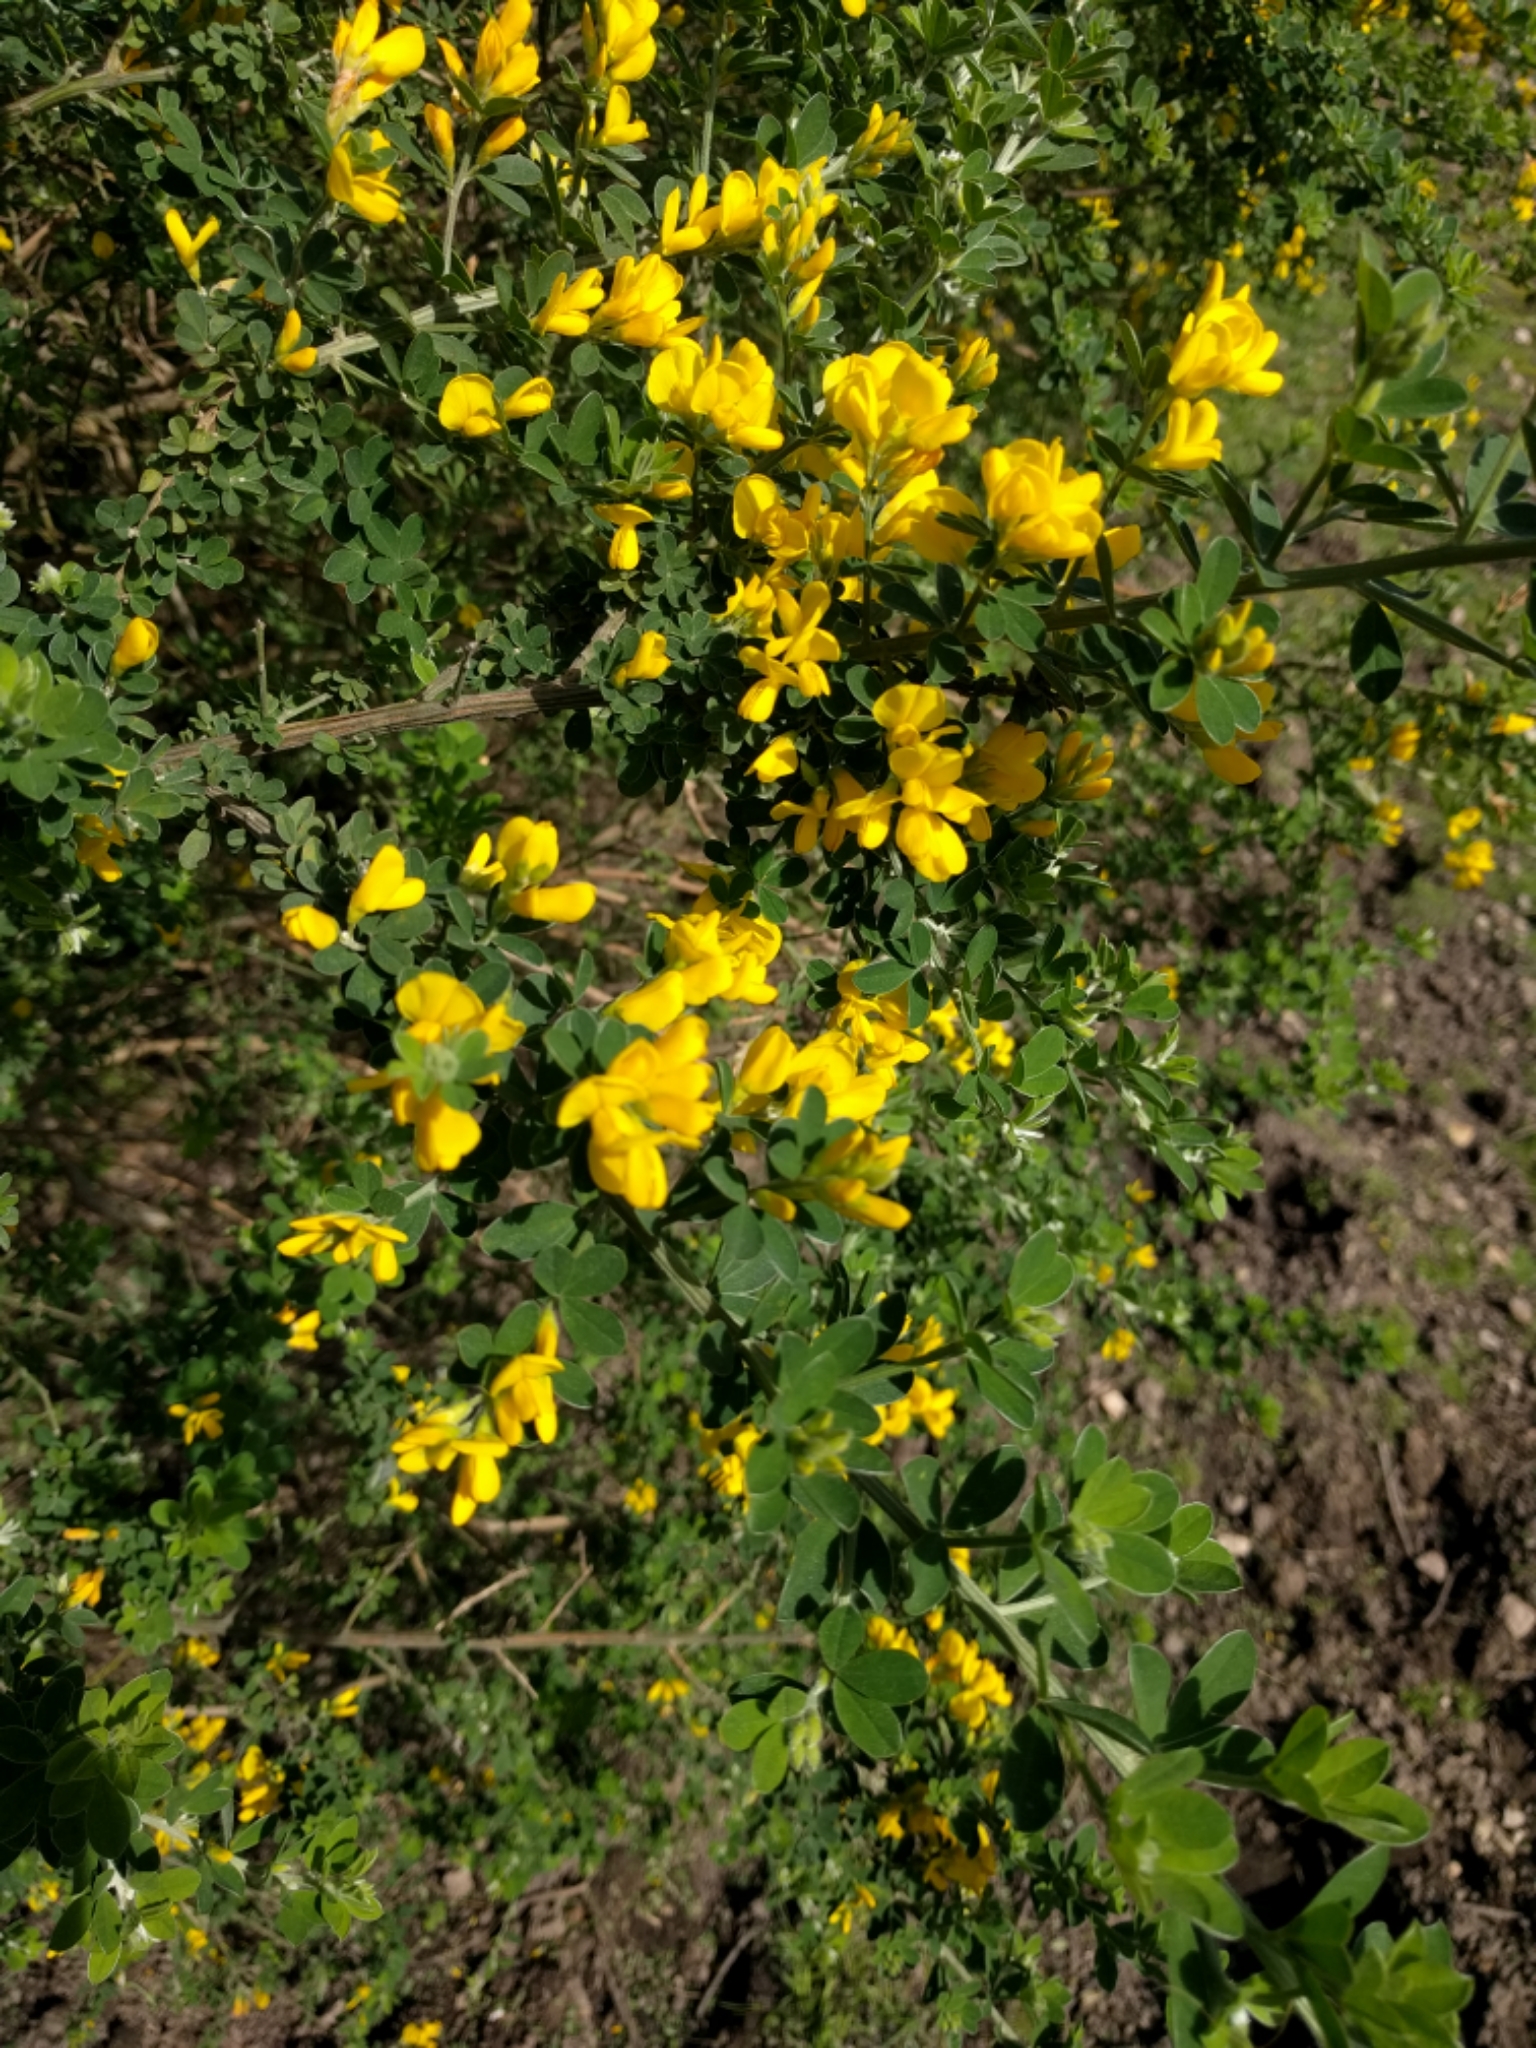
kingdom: Plantae
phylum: Tracheophyta
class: Magnoliopsida
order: Fabales
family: Fabaceae
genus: Genista
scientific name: Genista monspessulana
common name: Montpellier broom
